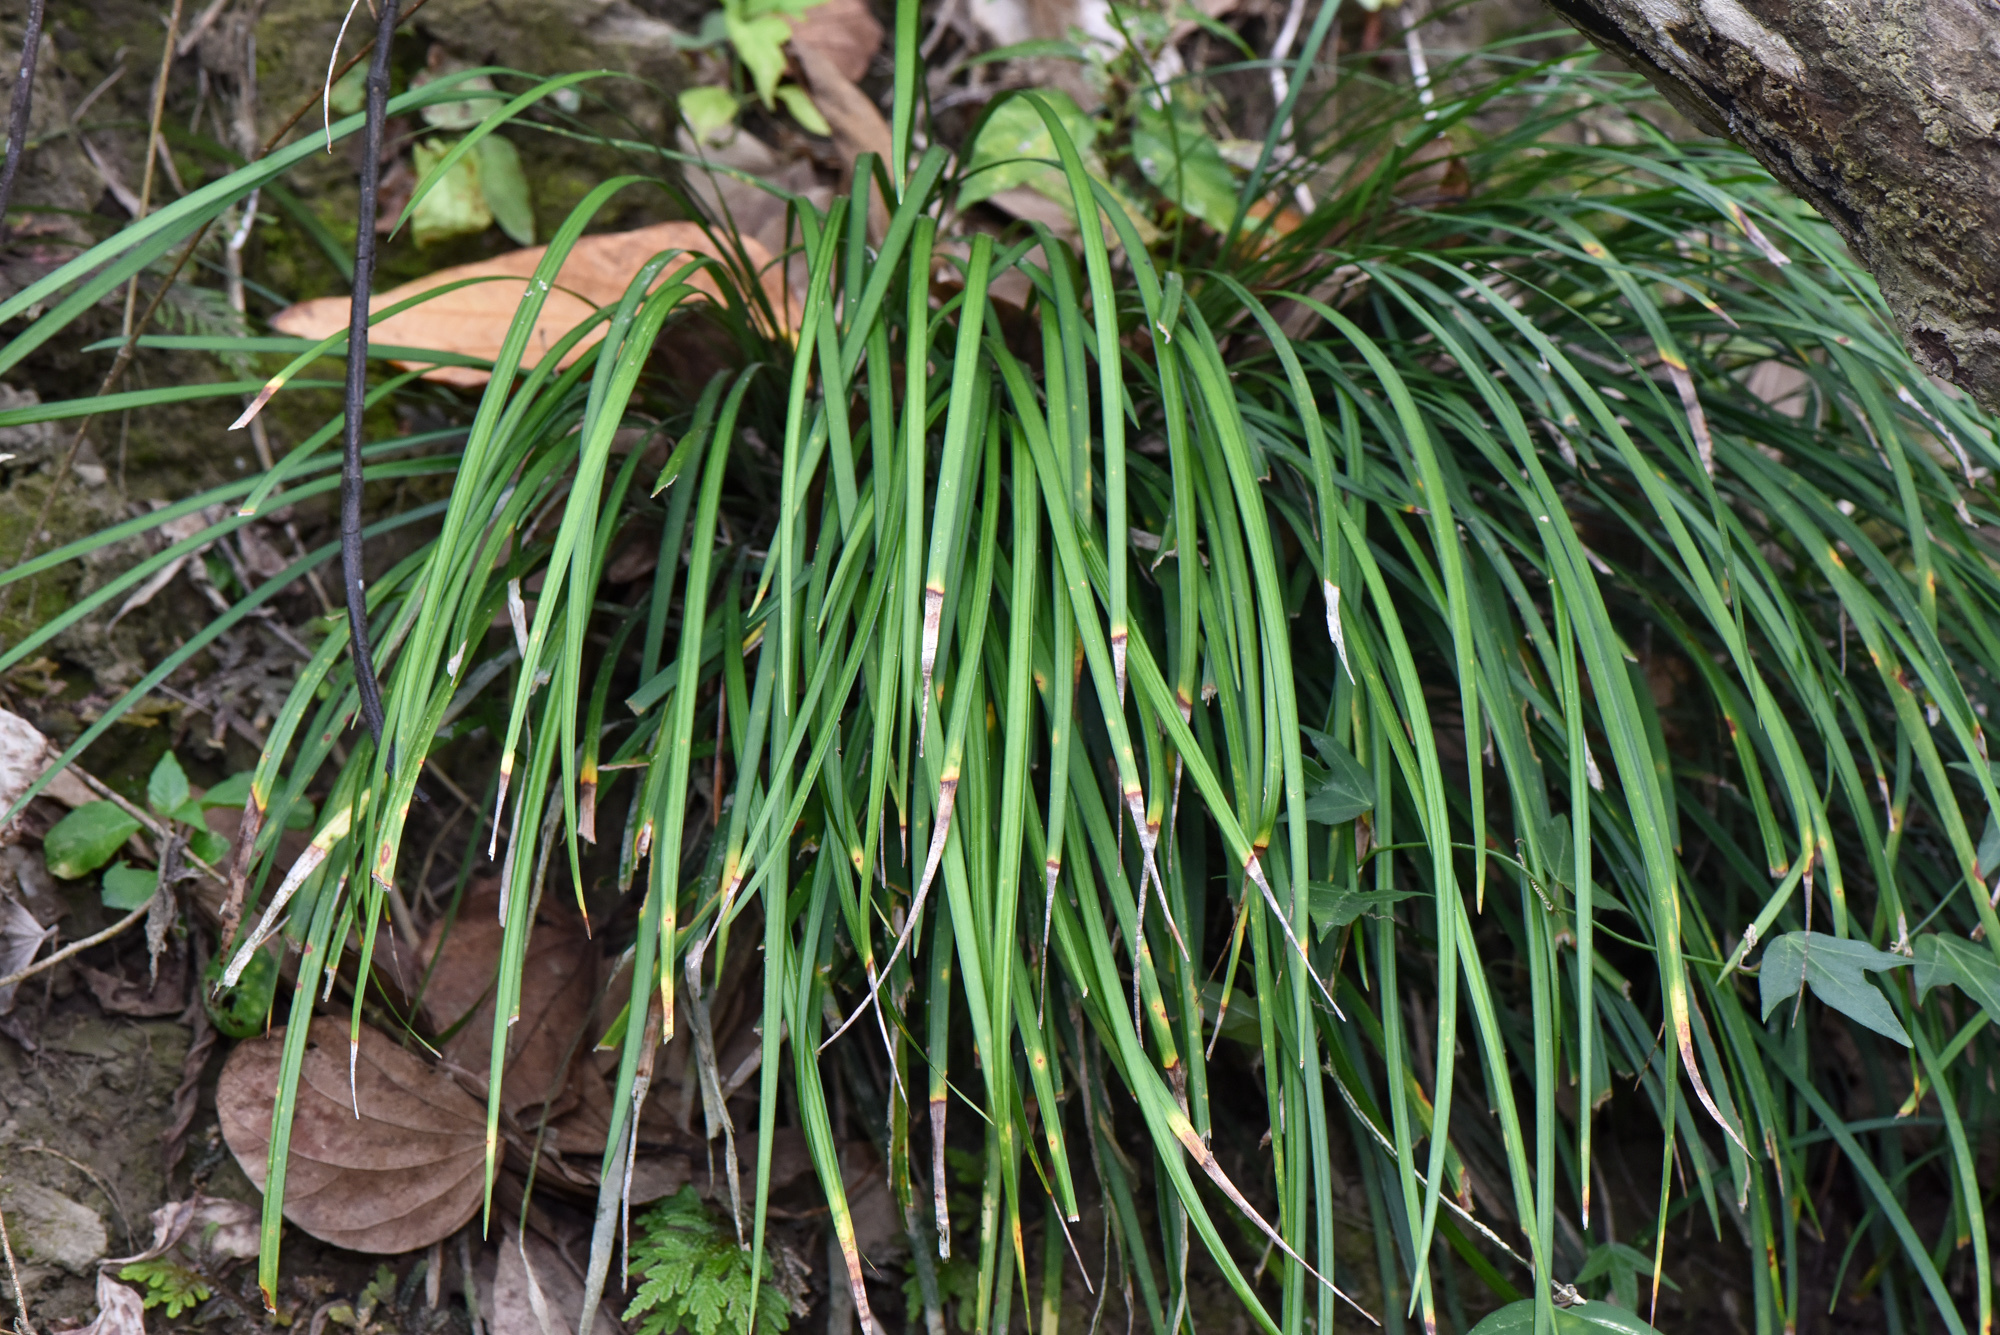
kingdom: Plantae
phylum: Tracheophyta
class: Liliopsida
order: Asparagales
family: Asparagaceae
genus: Ophiopogon
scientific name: Ophiopogon reversus
